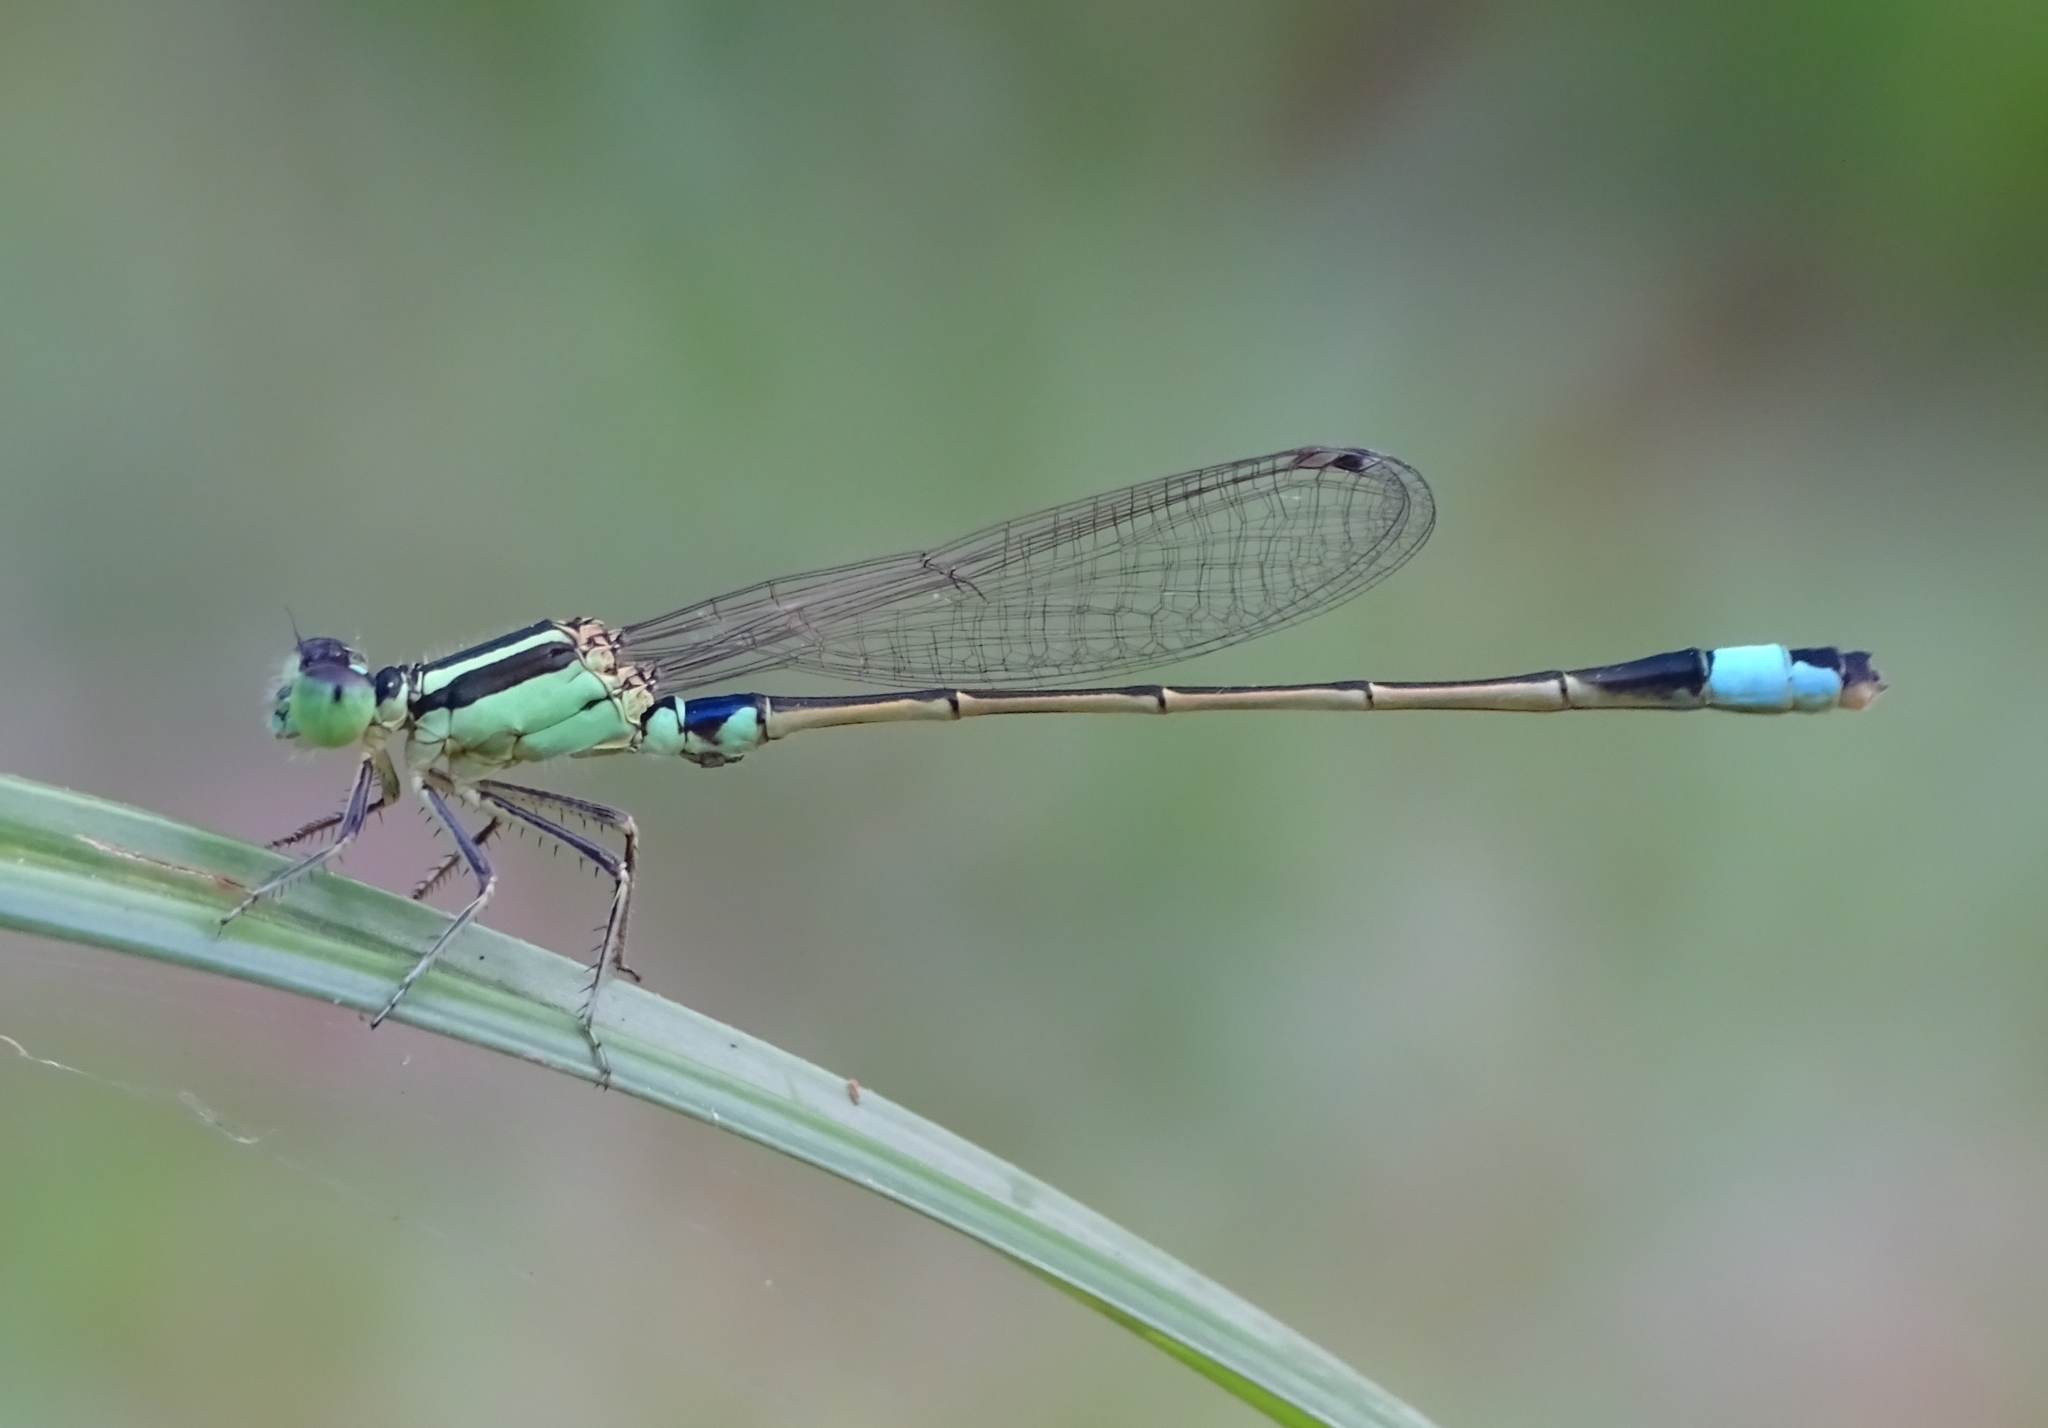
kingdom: Animalia
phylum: Arthropoda
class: Insecta
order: Odonata
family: Coenagrionidae
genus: Ischnura
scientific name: Ischnura senegalensis
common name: Tropical bluetail
